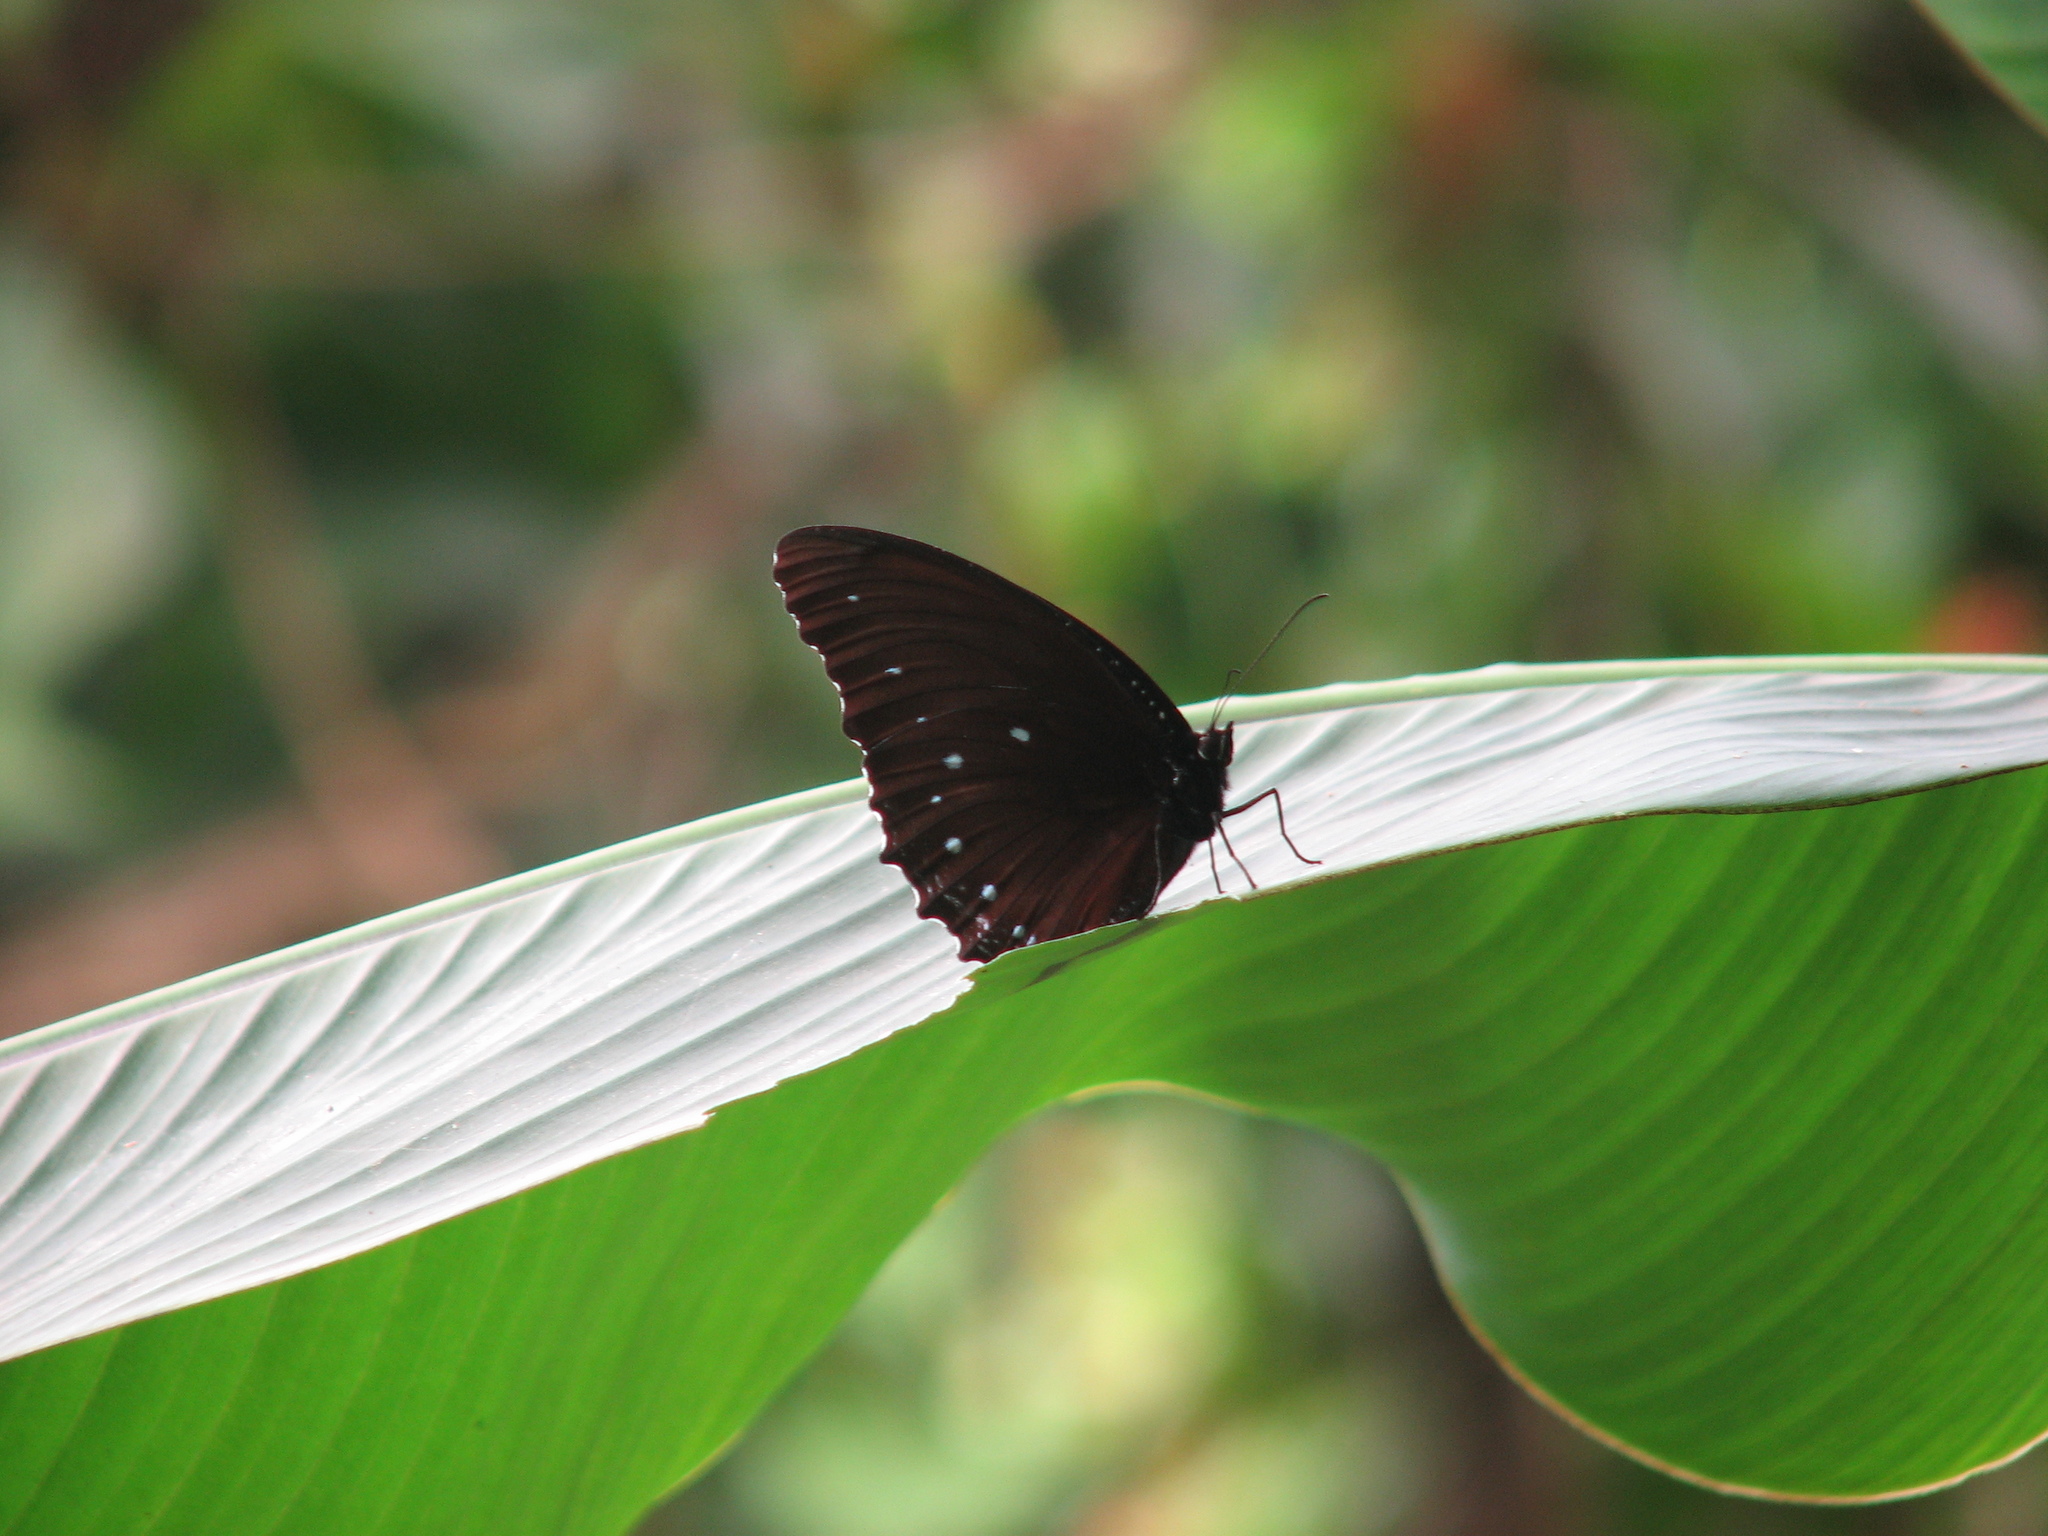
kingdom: Animalia
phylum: Arthropoda
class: Insecta
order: Lepidoptera
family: Nymphalidae
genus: Elymnias
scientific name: Elymnias patna
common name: Blue-striped palmfly
